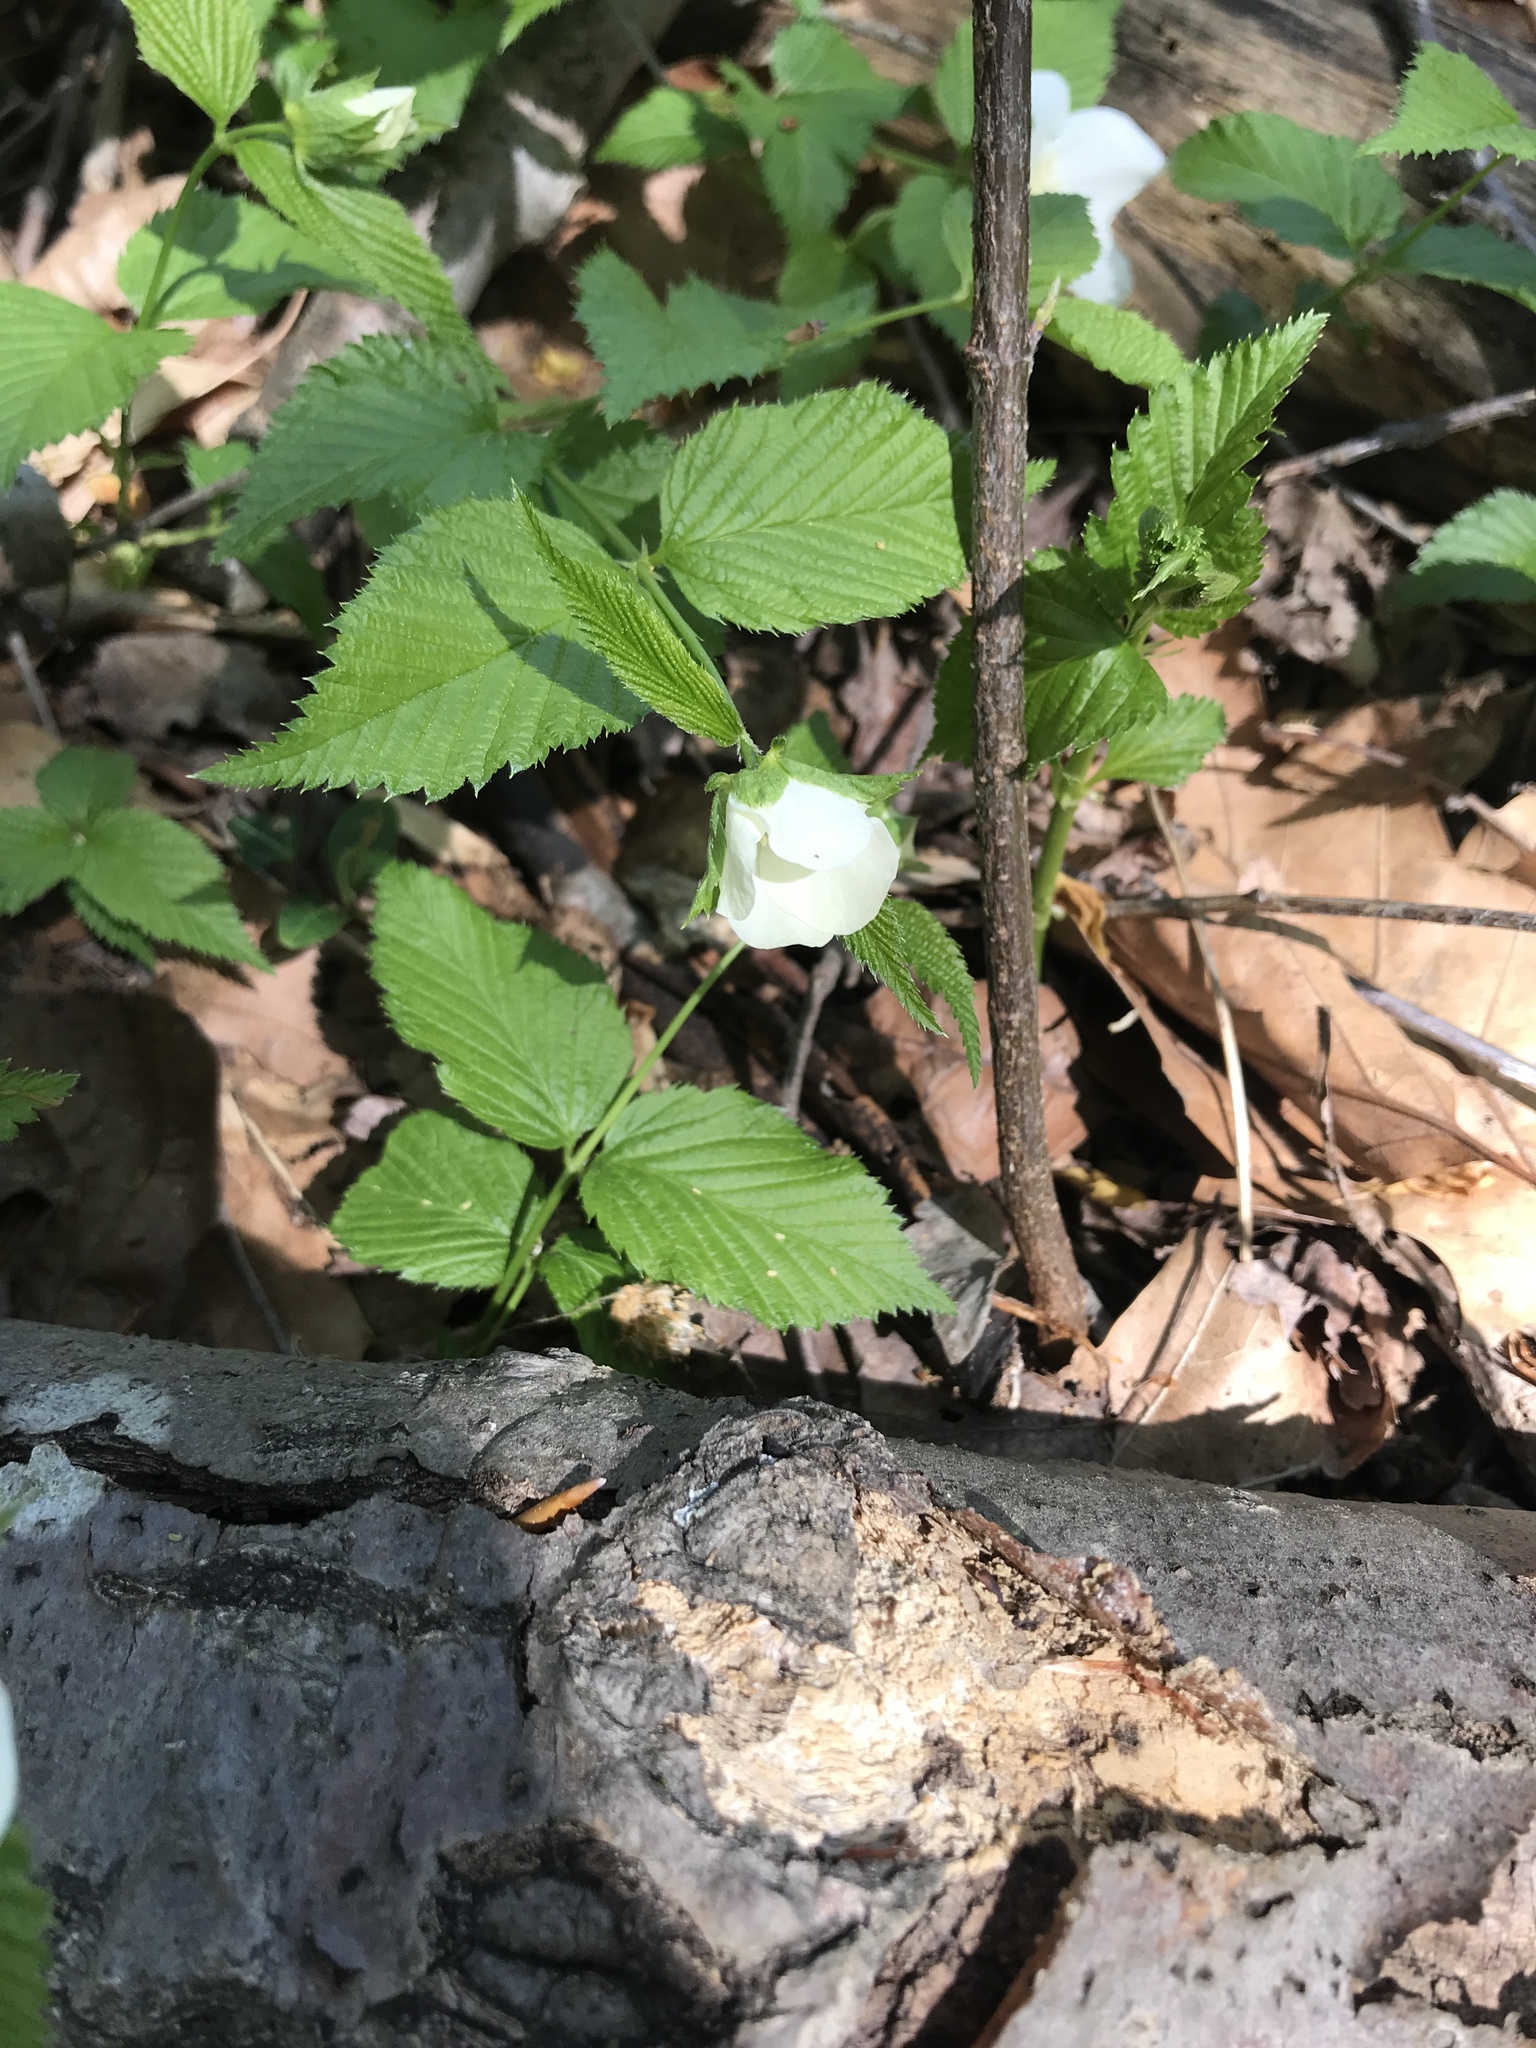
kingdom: Plantae
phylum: Tracheophyta
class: Magnoliopsida
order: Rosales
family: Rosaceae
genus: Rhodotypos
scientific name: Rhodotypos scandens
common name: Jetbead
